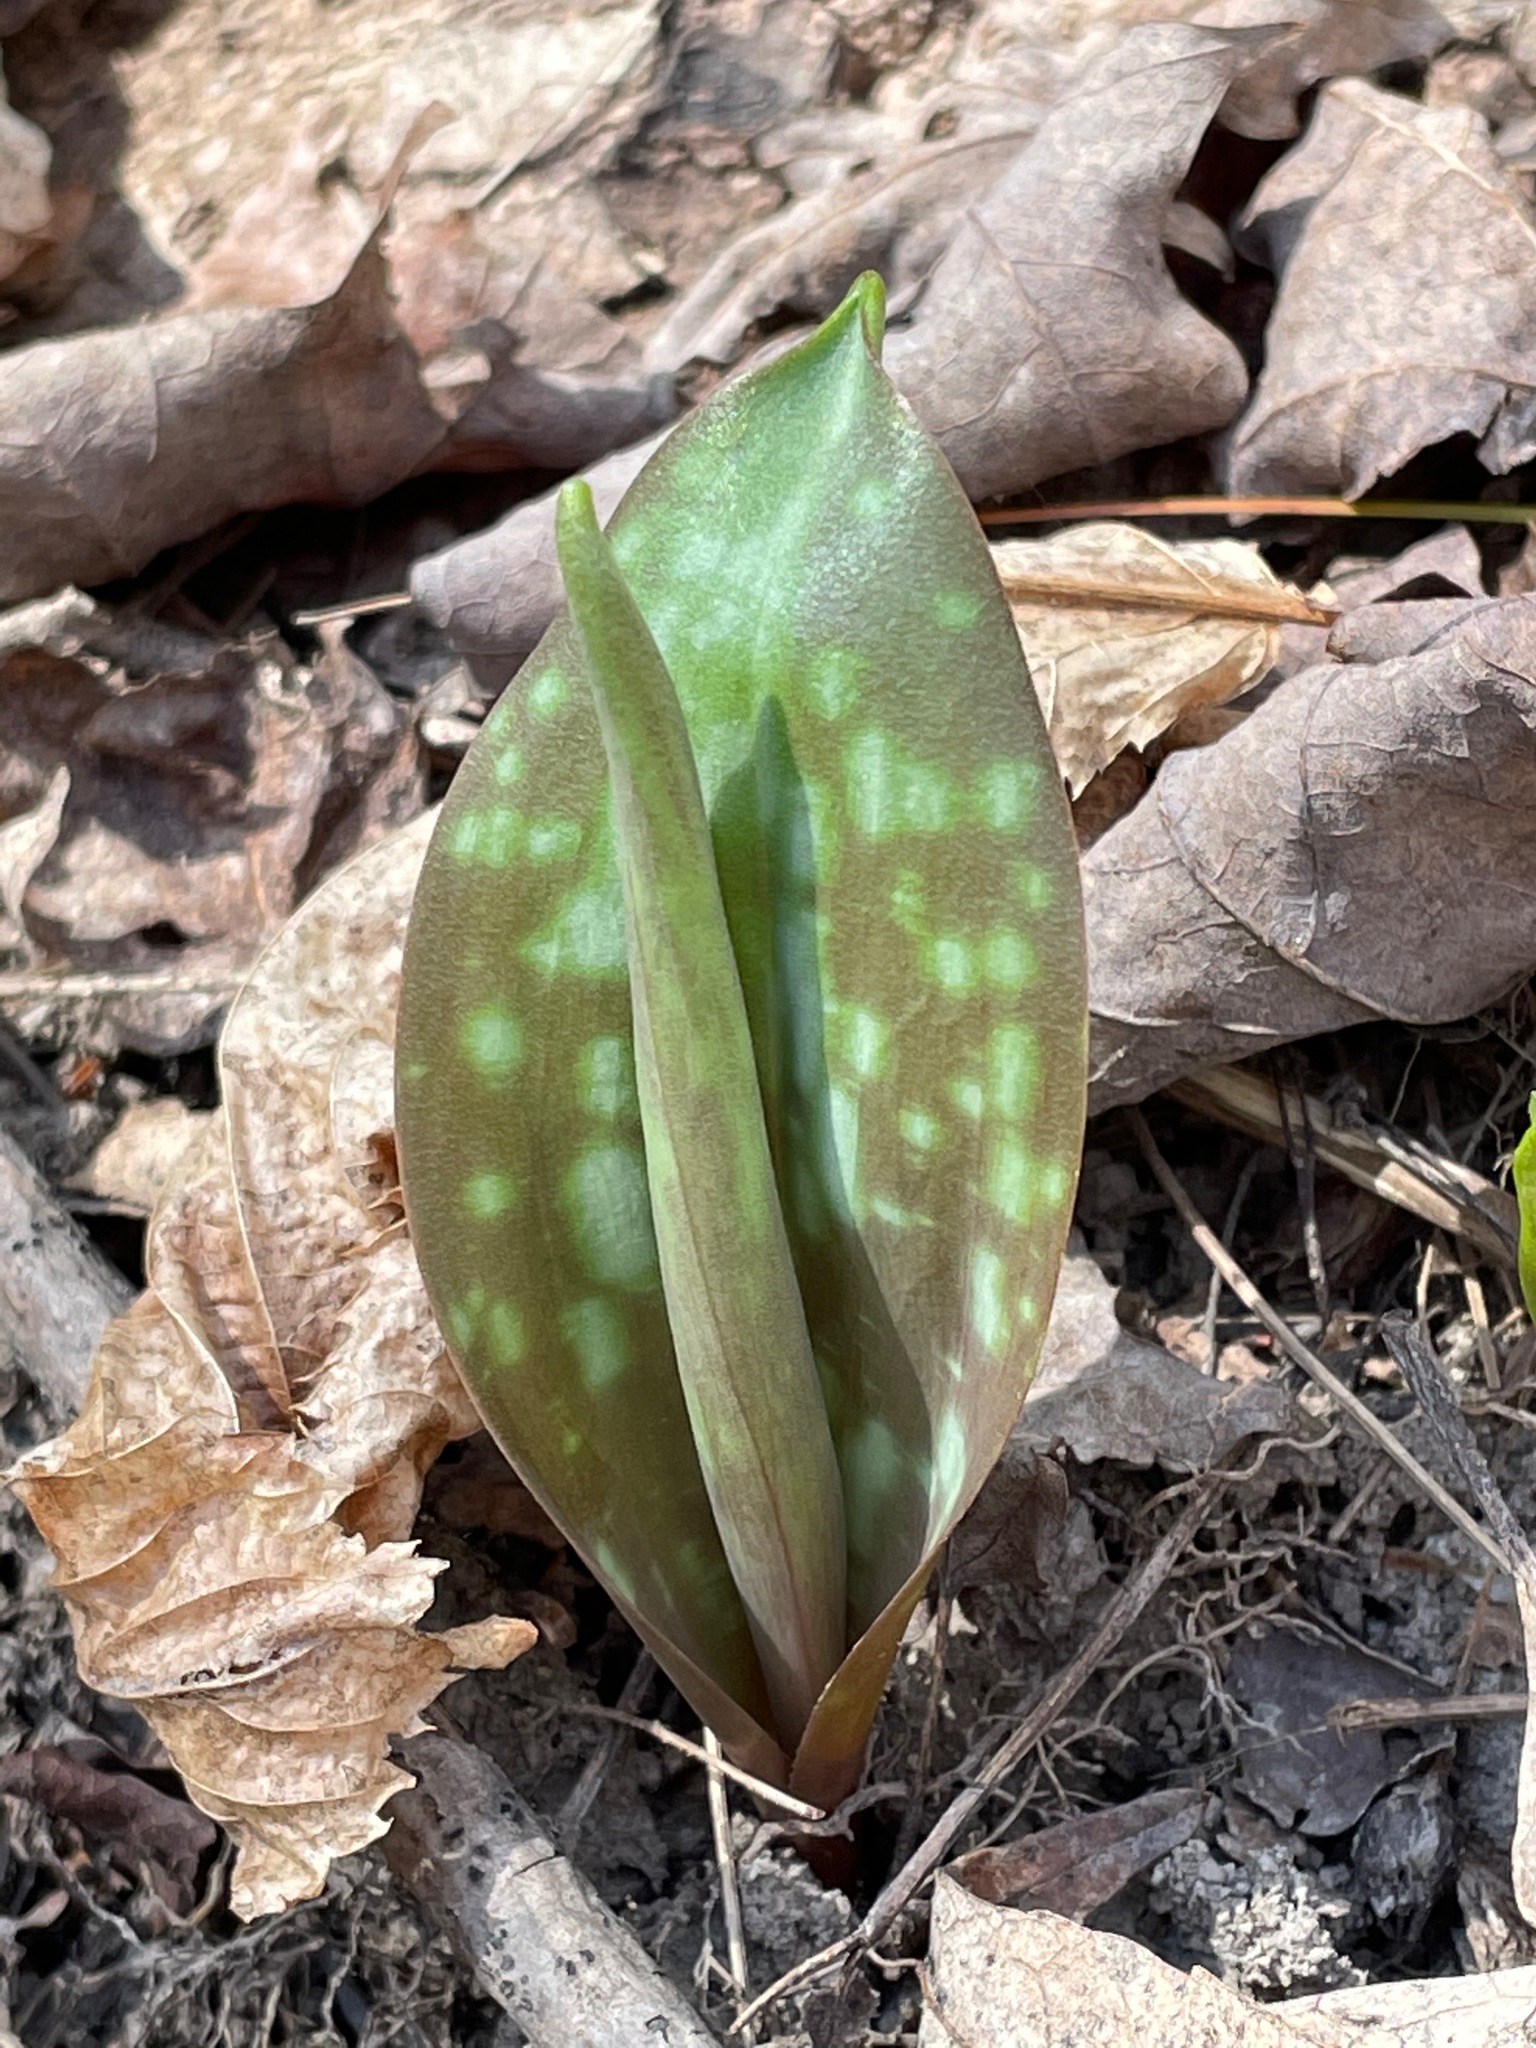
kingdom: Plantae
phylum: Tracheophyta
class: Liliopsida
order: Liliales
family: Liliaceae
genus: Erythronium
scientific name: Erythronium americanum
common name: Yellow adder's-tongue
